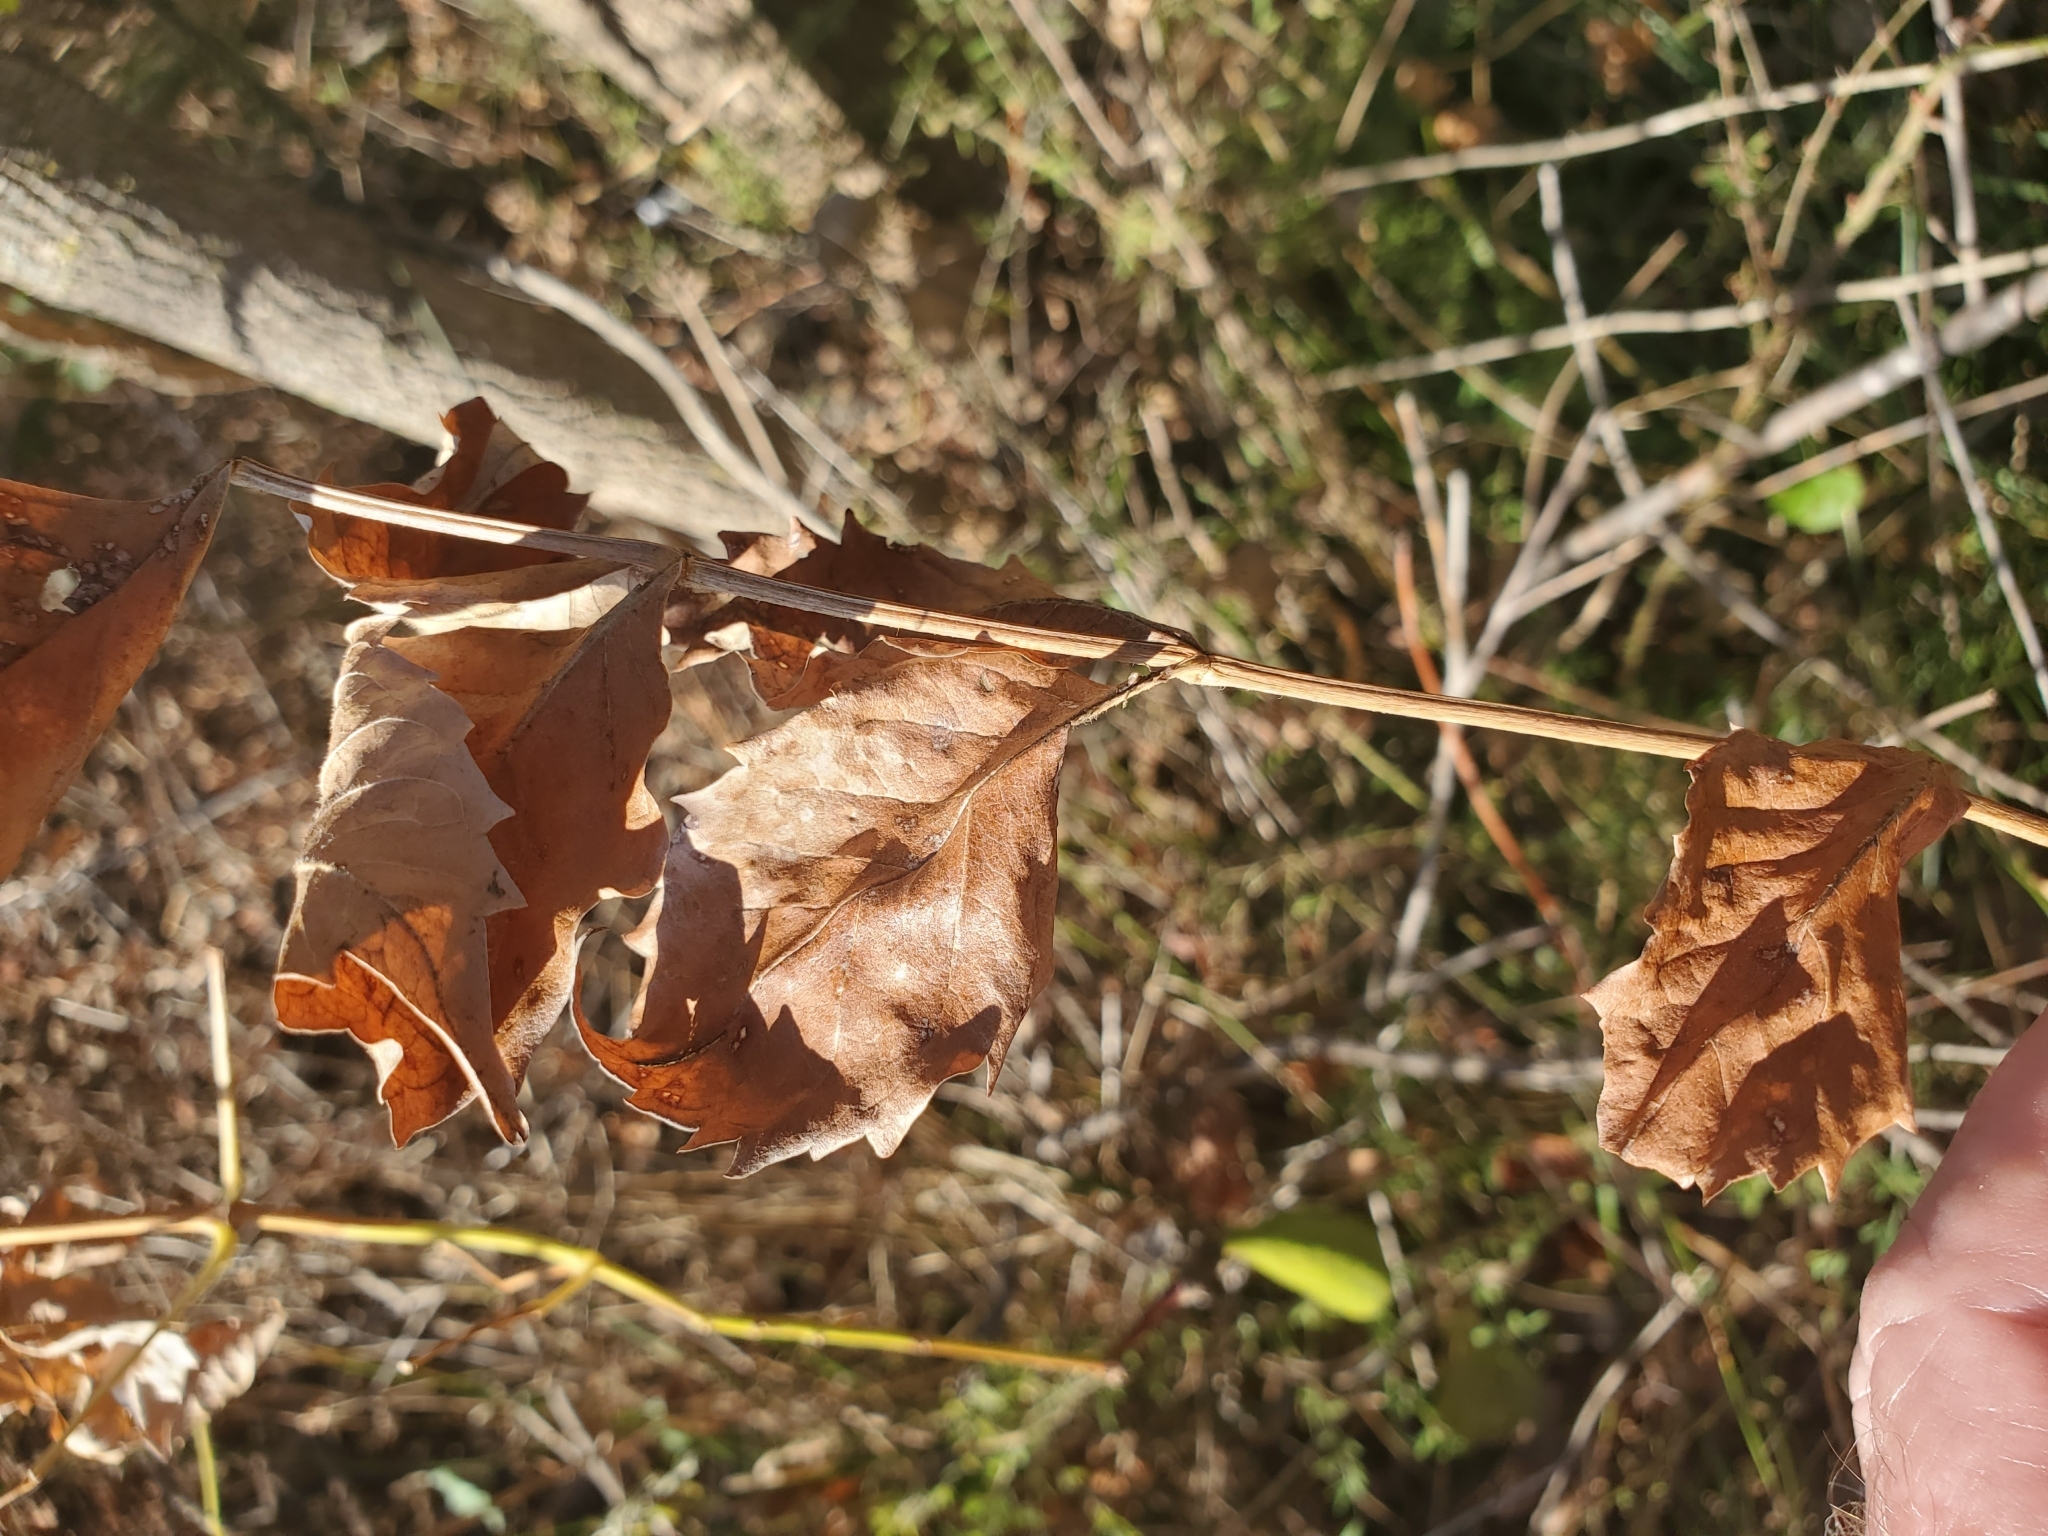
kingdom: Plantae
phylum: Tracheophyta
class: Magnoliopsida
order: Lamiales
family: Bignoniaceae
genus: Campsis
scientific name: Campsis radicans
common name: Trumpet-creeper
